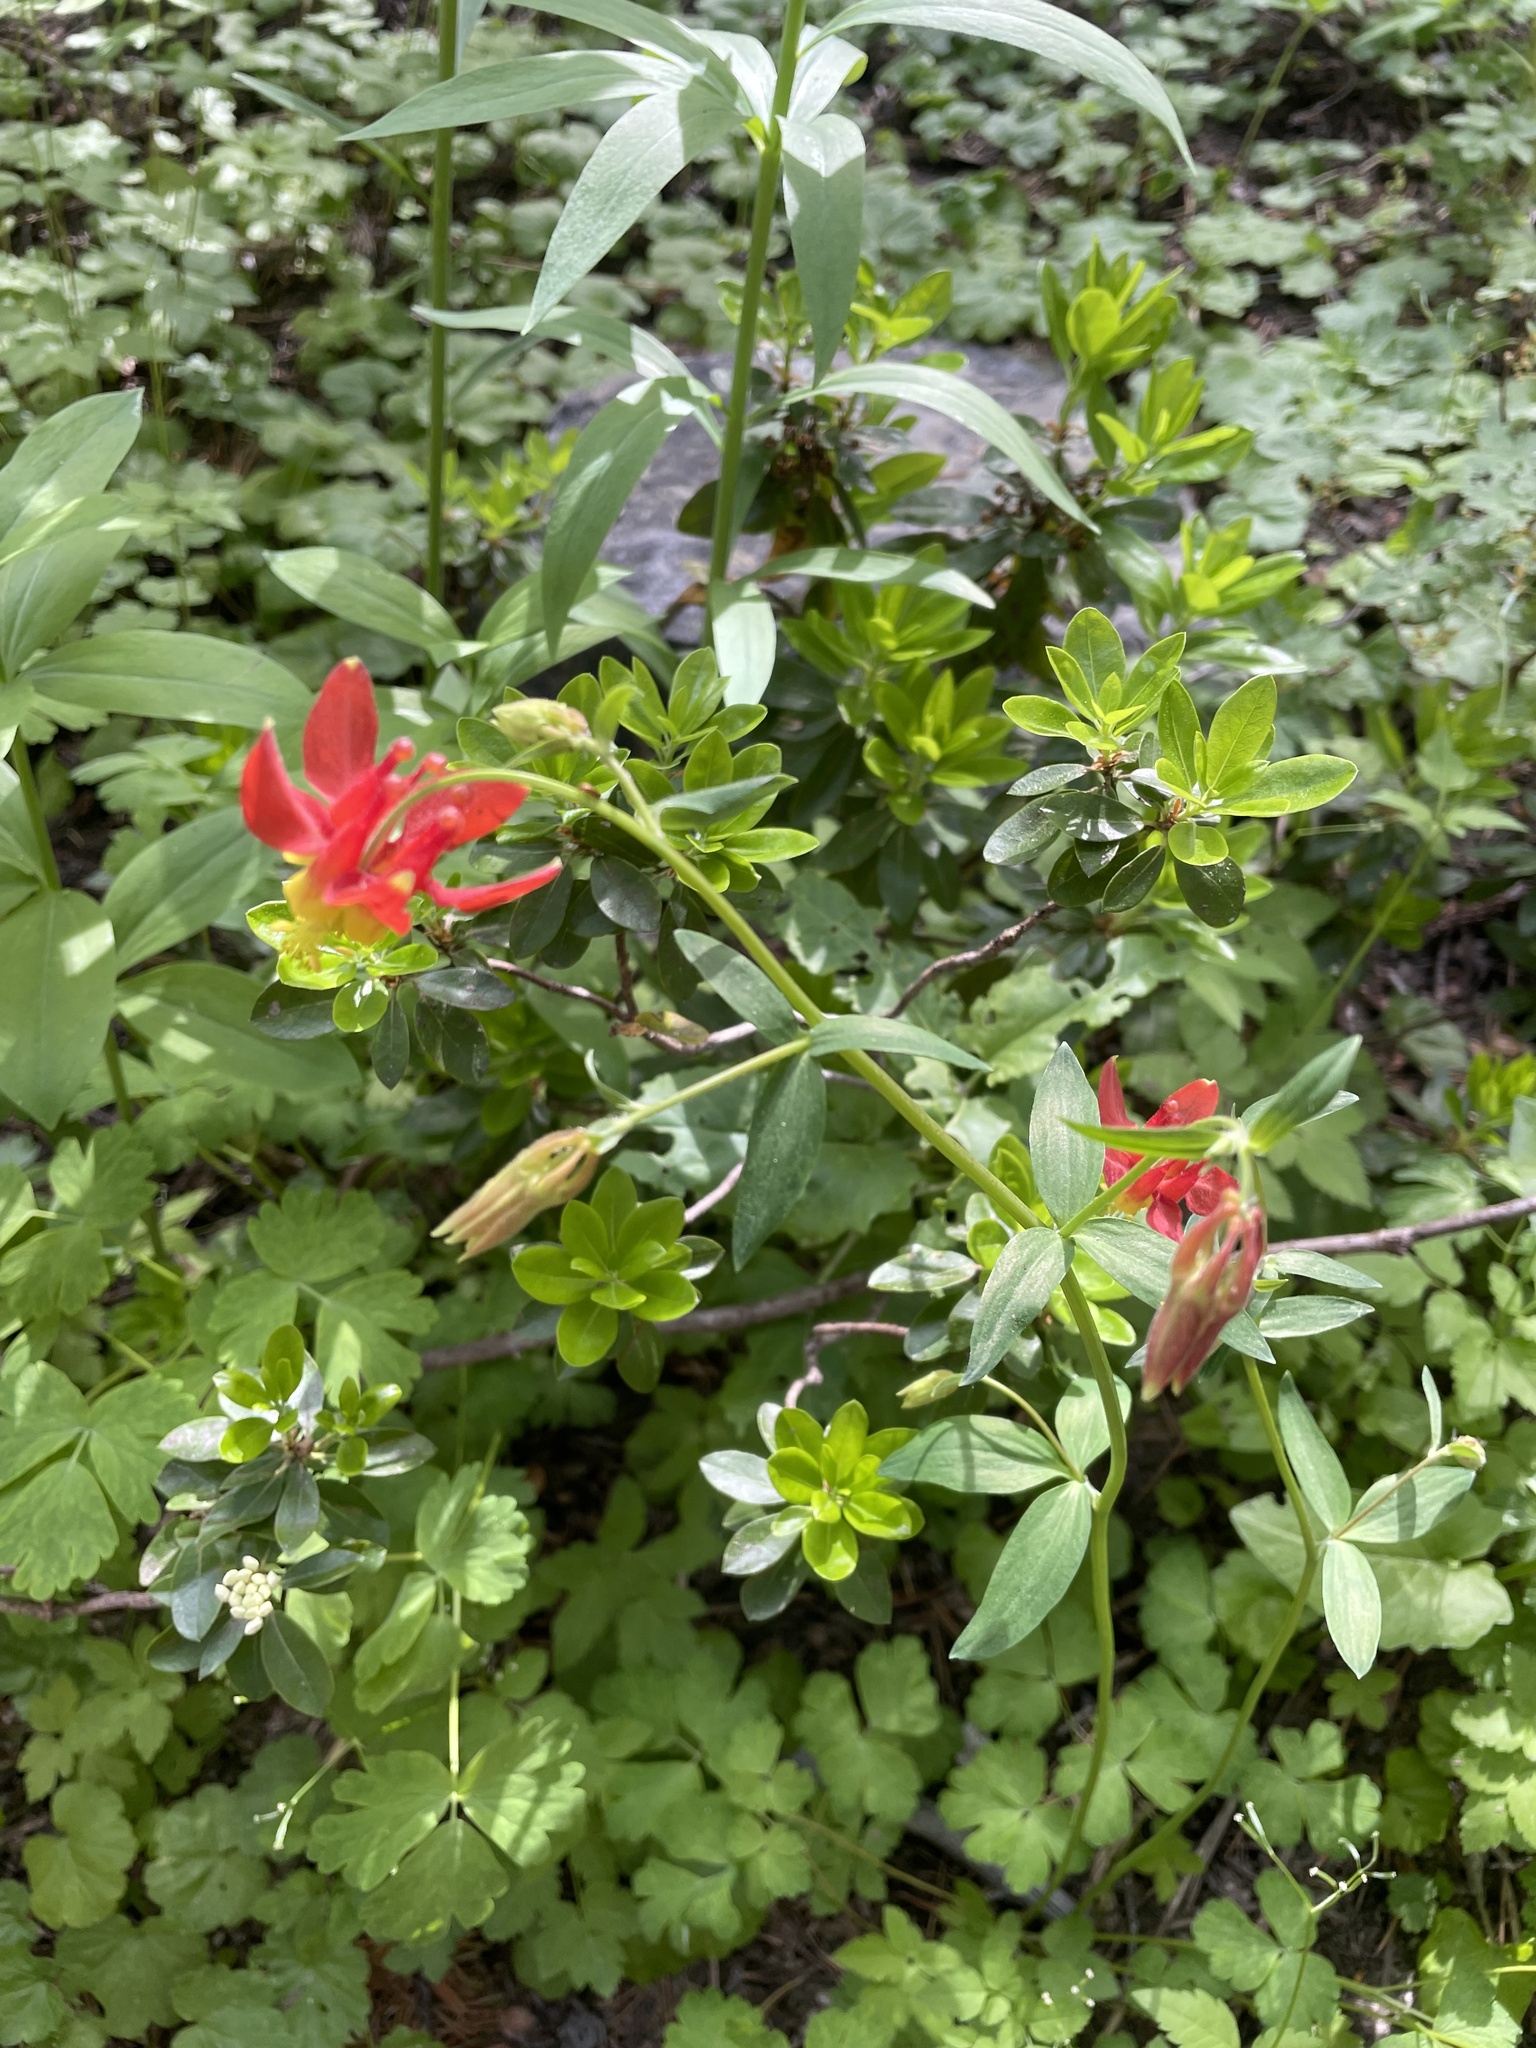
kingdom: Plantae
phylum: Tracheophyta
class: Magnoliopsida
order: Ranunculales
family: Ranunculaceae
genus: Aquilegia
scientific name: Aquilegia formosa
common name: Sitka columbine
